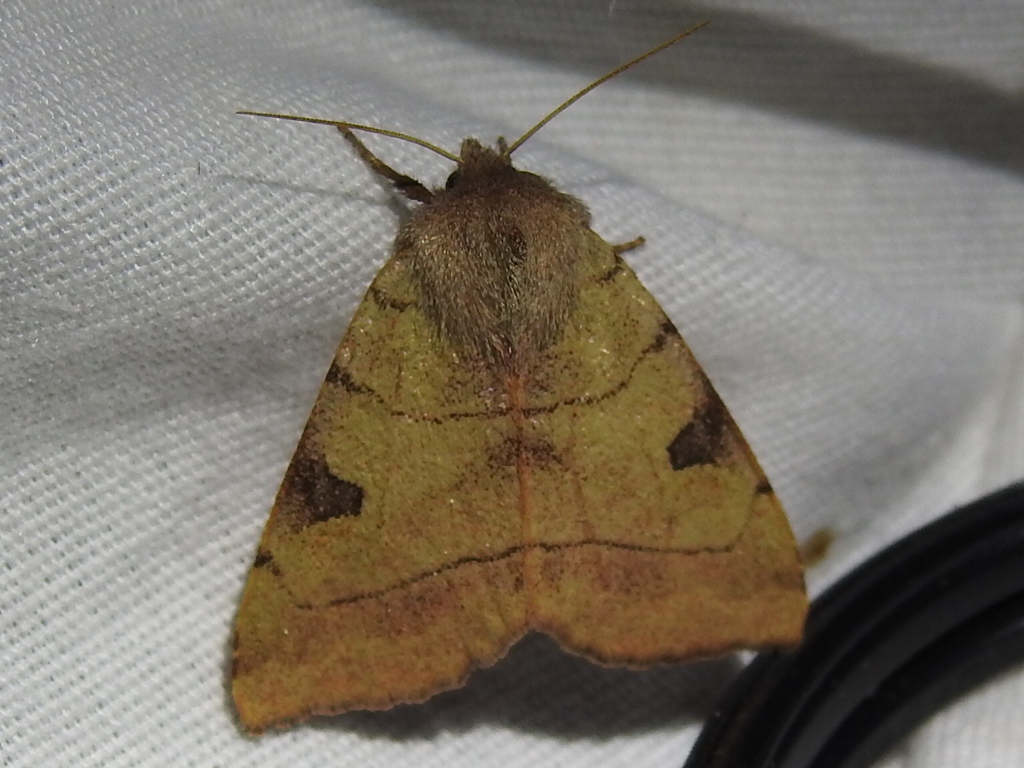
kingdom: Animalia
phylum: Arthropoda
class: Insecta
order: Lepidoptera
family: Noctuidae
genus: Choephora
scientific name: Choephora fungorum
